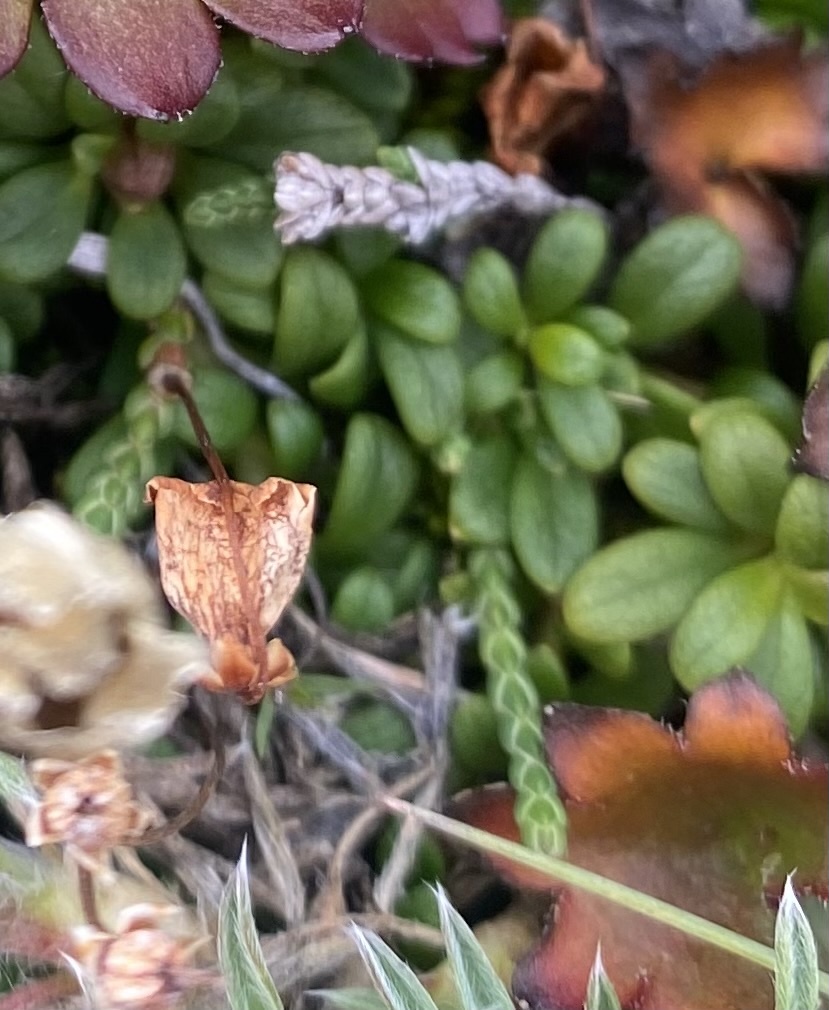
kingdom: Plantae
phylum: Tracheophyta
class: Magnoliopsida
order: Ericales
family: Ericaceae
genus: Cassiope
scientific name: Cassiope lycopodioides
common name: Clubmoss mountain heather
